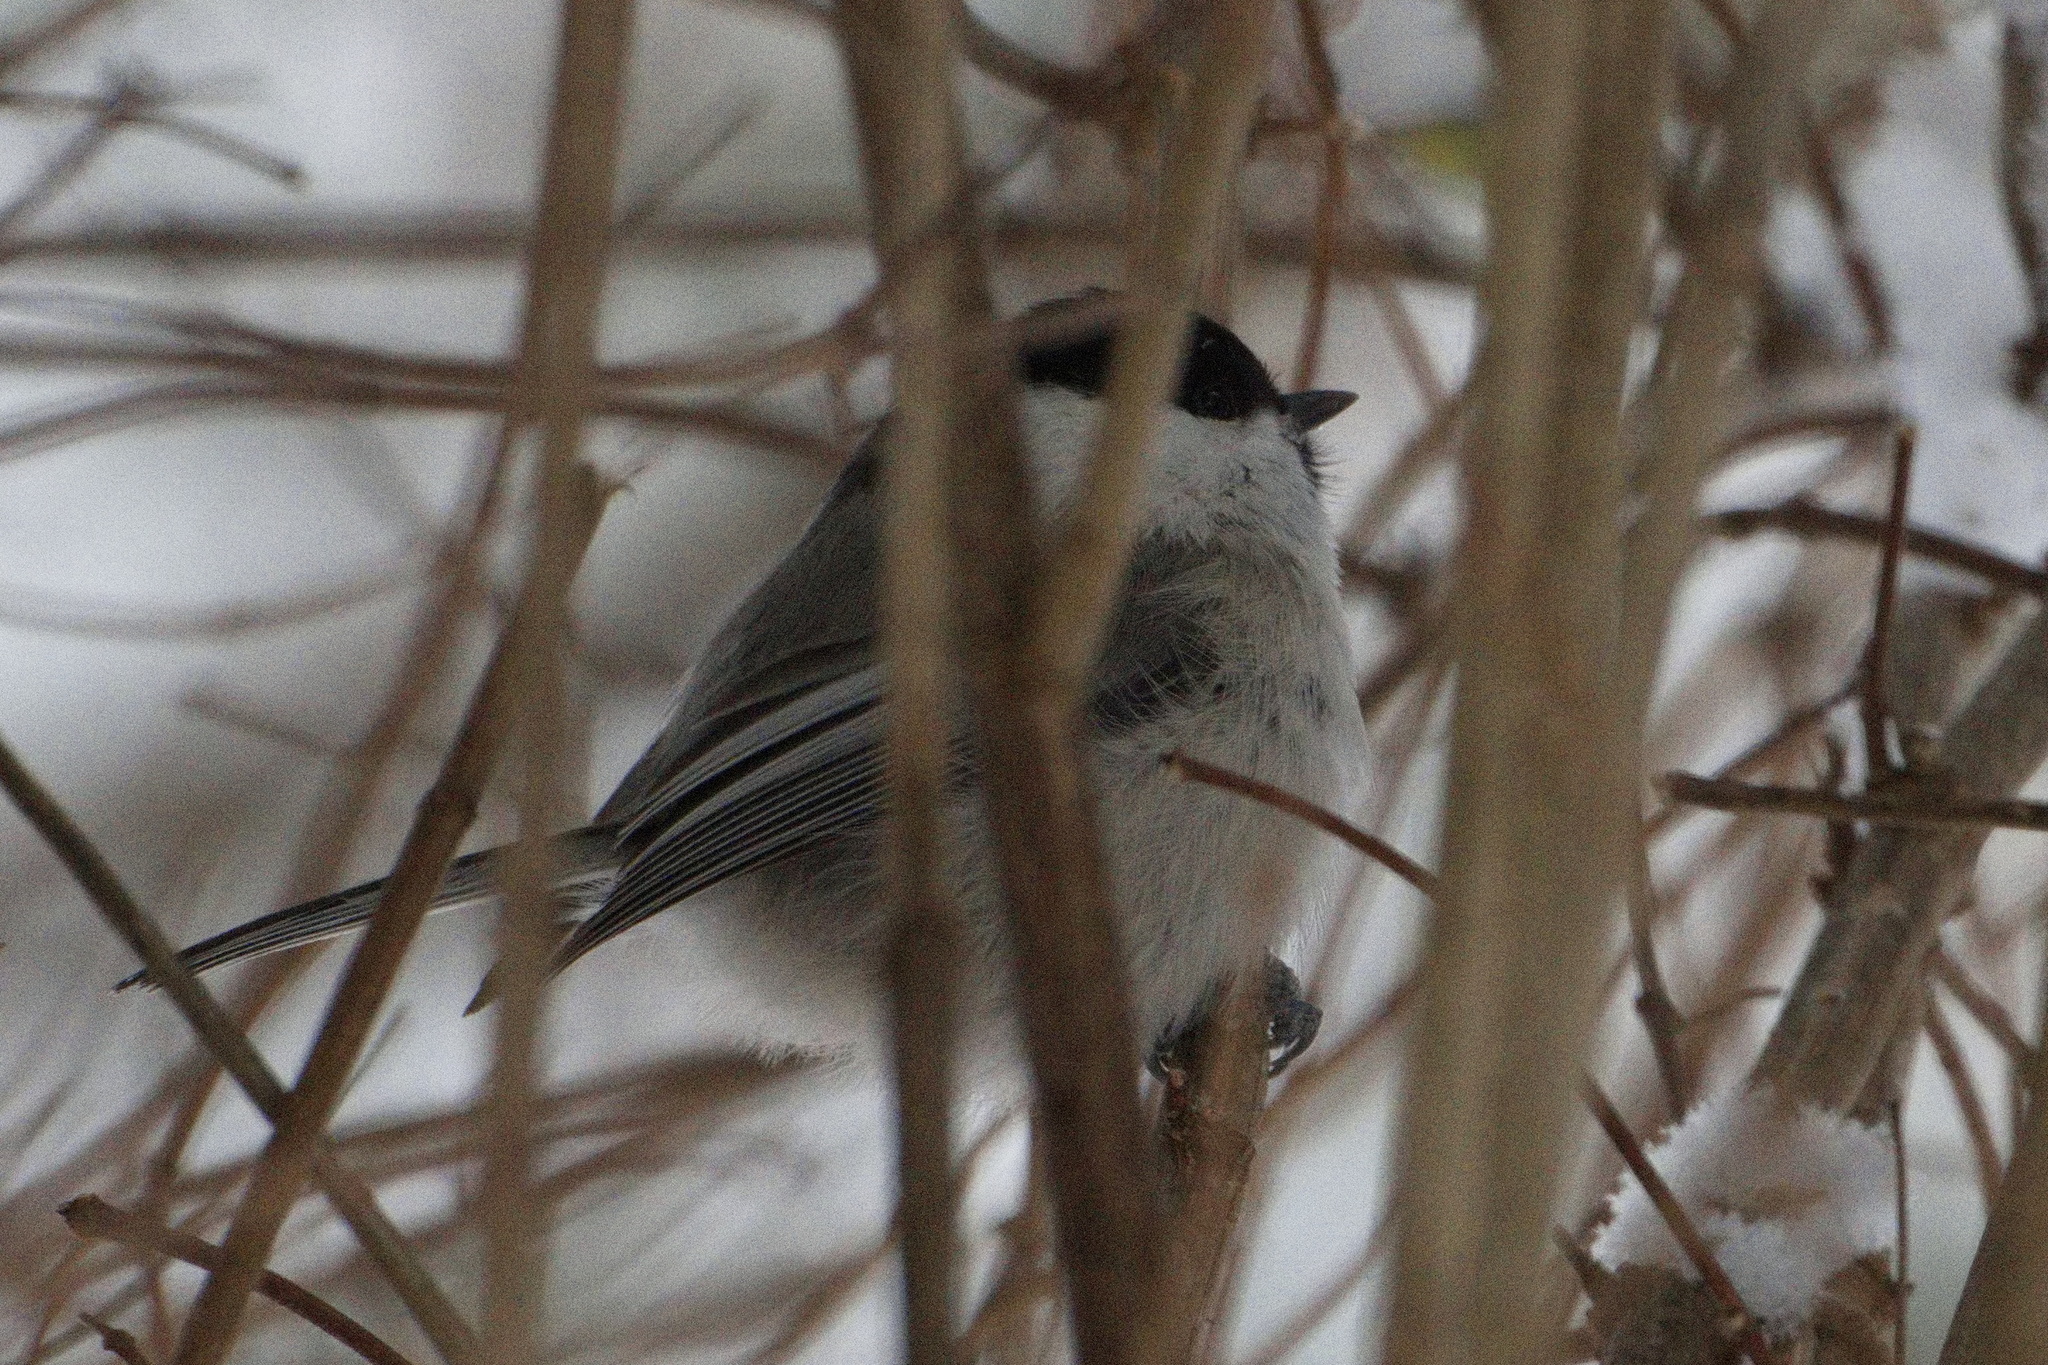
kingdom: Animalia
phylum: Chordata
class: Aves
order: Passeriformes
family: Paridae
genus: Poecile
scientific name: Poecile montanus
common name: Willow tit
